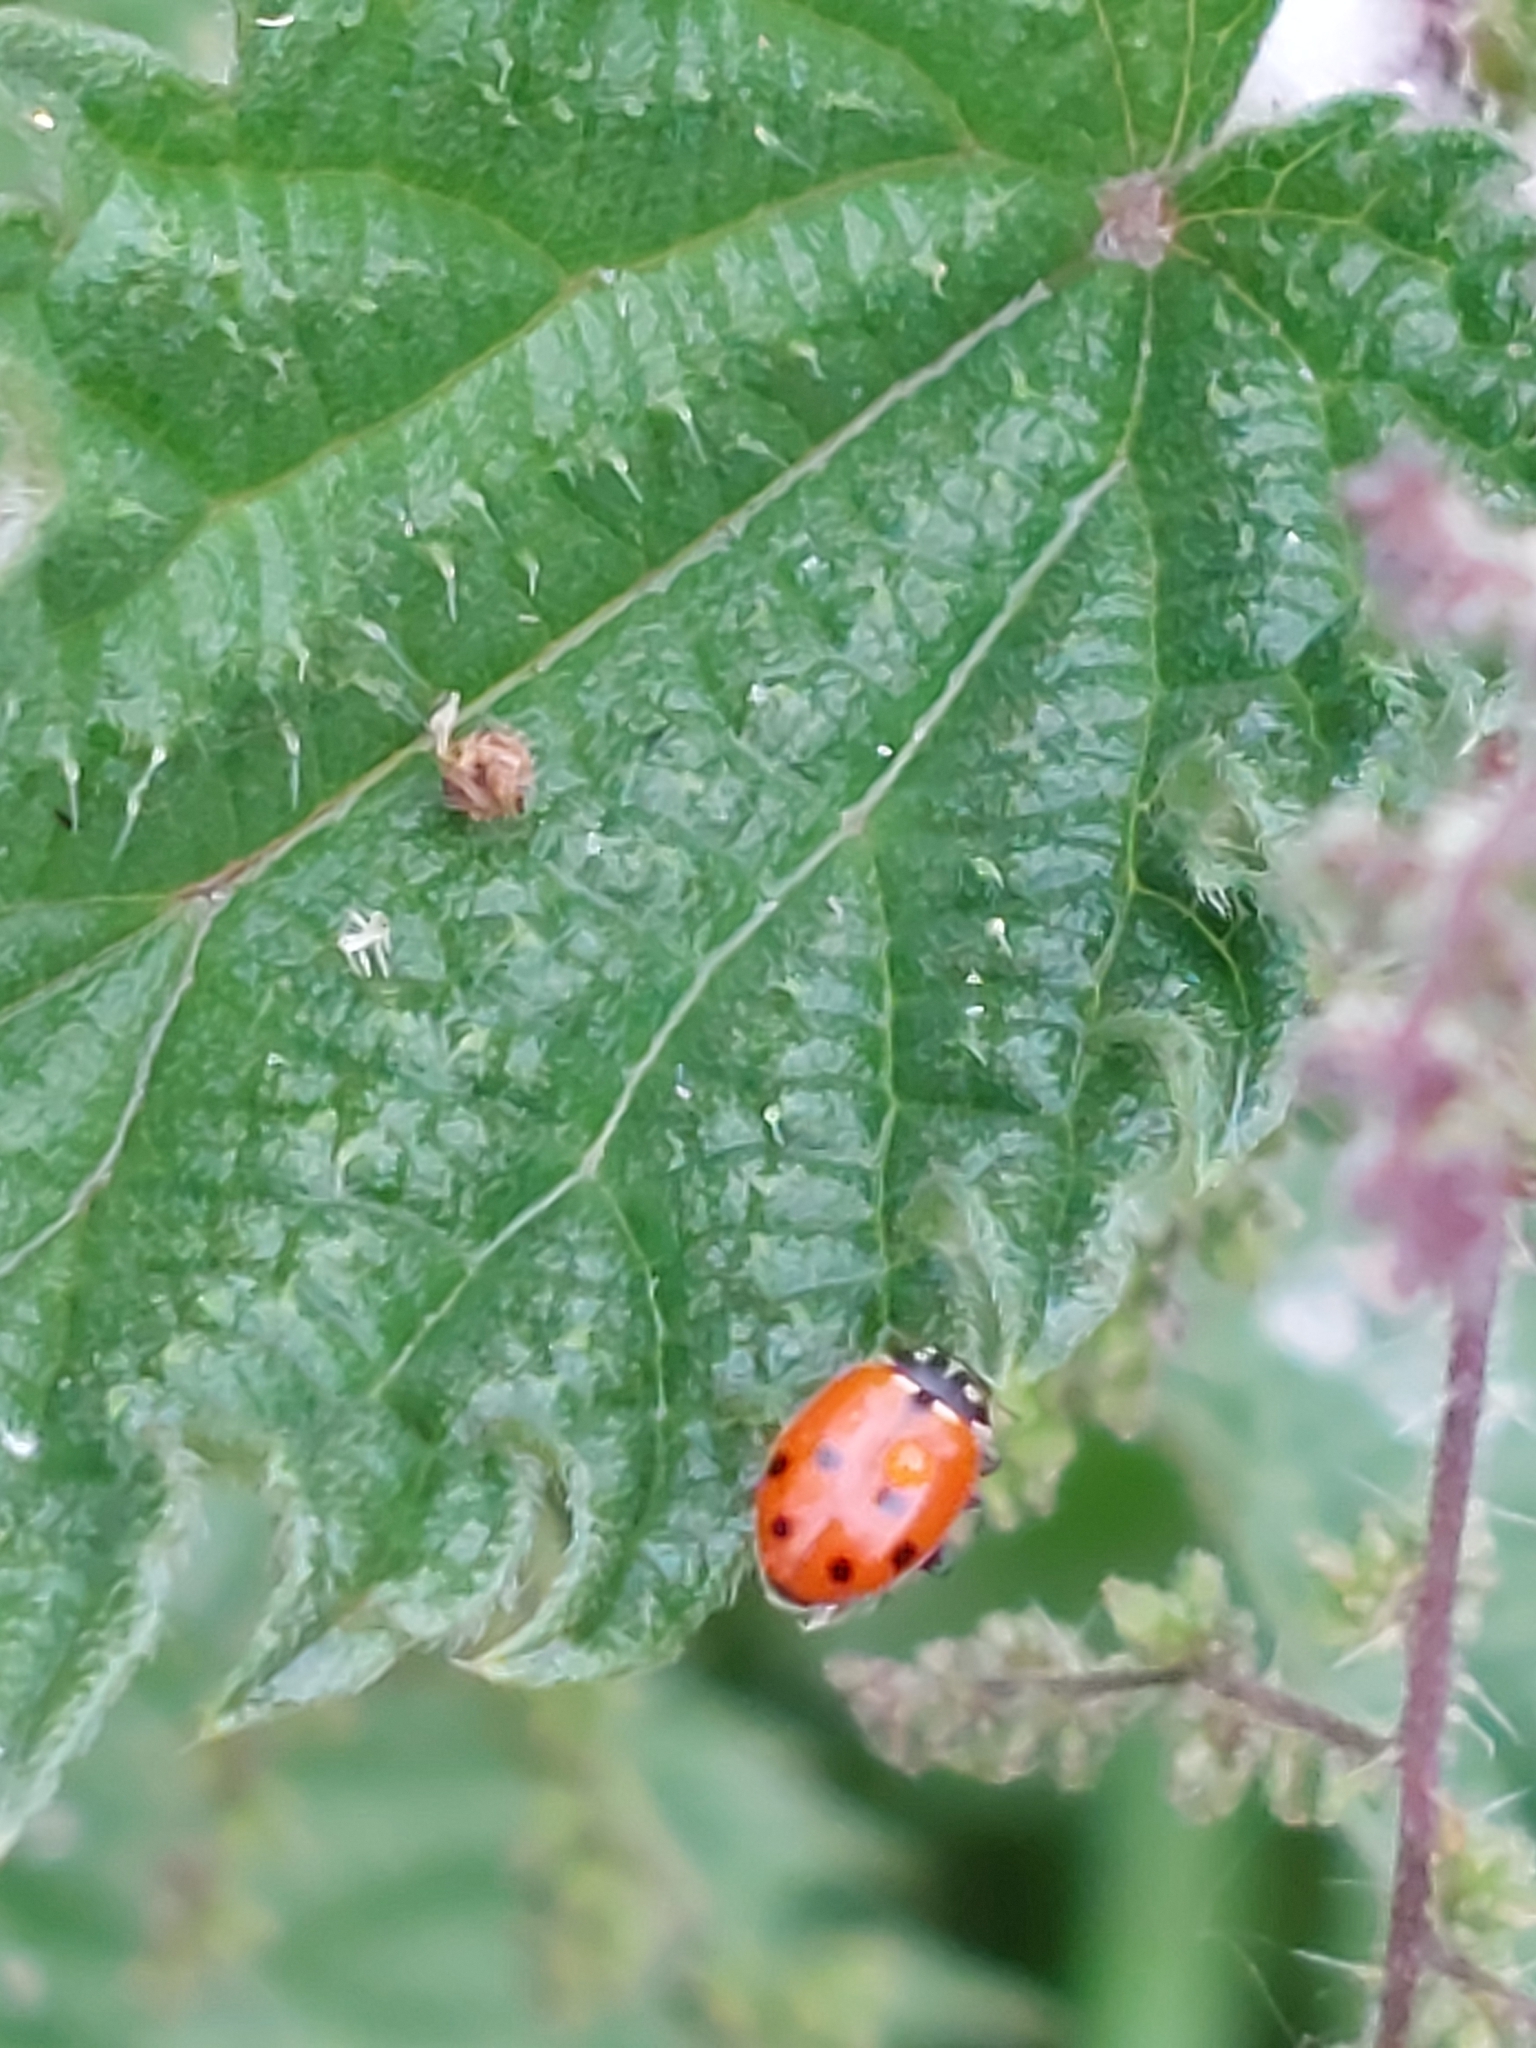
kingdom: Animalia
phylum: Arthropoda
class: Insecta
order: Coleoptera
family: Coccinellidae
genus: Hippodamia
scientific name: Hippodamia variegata
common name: Ladybird beetle
